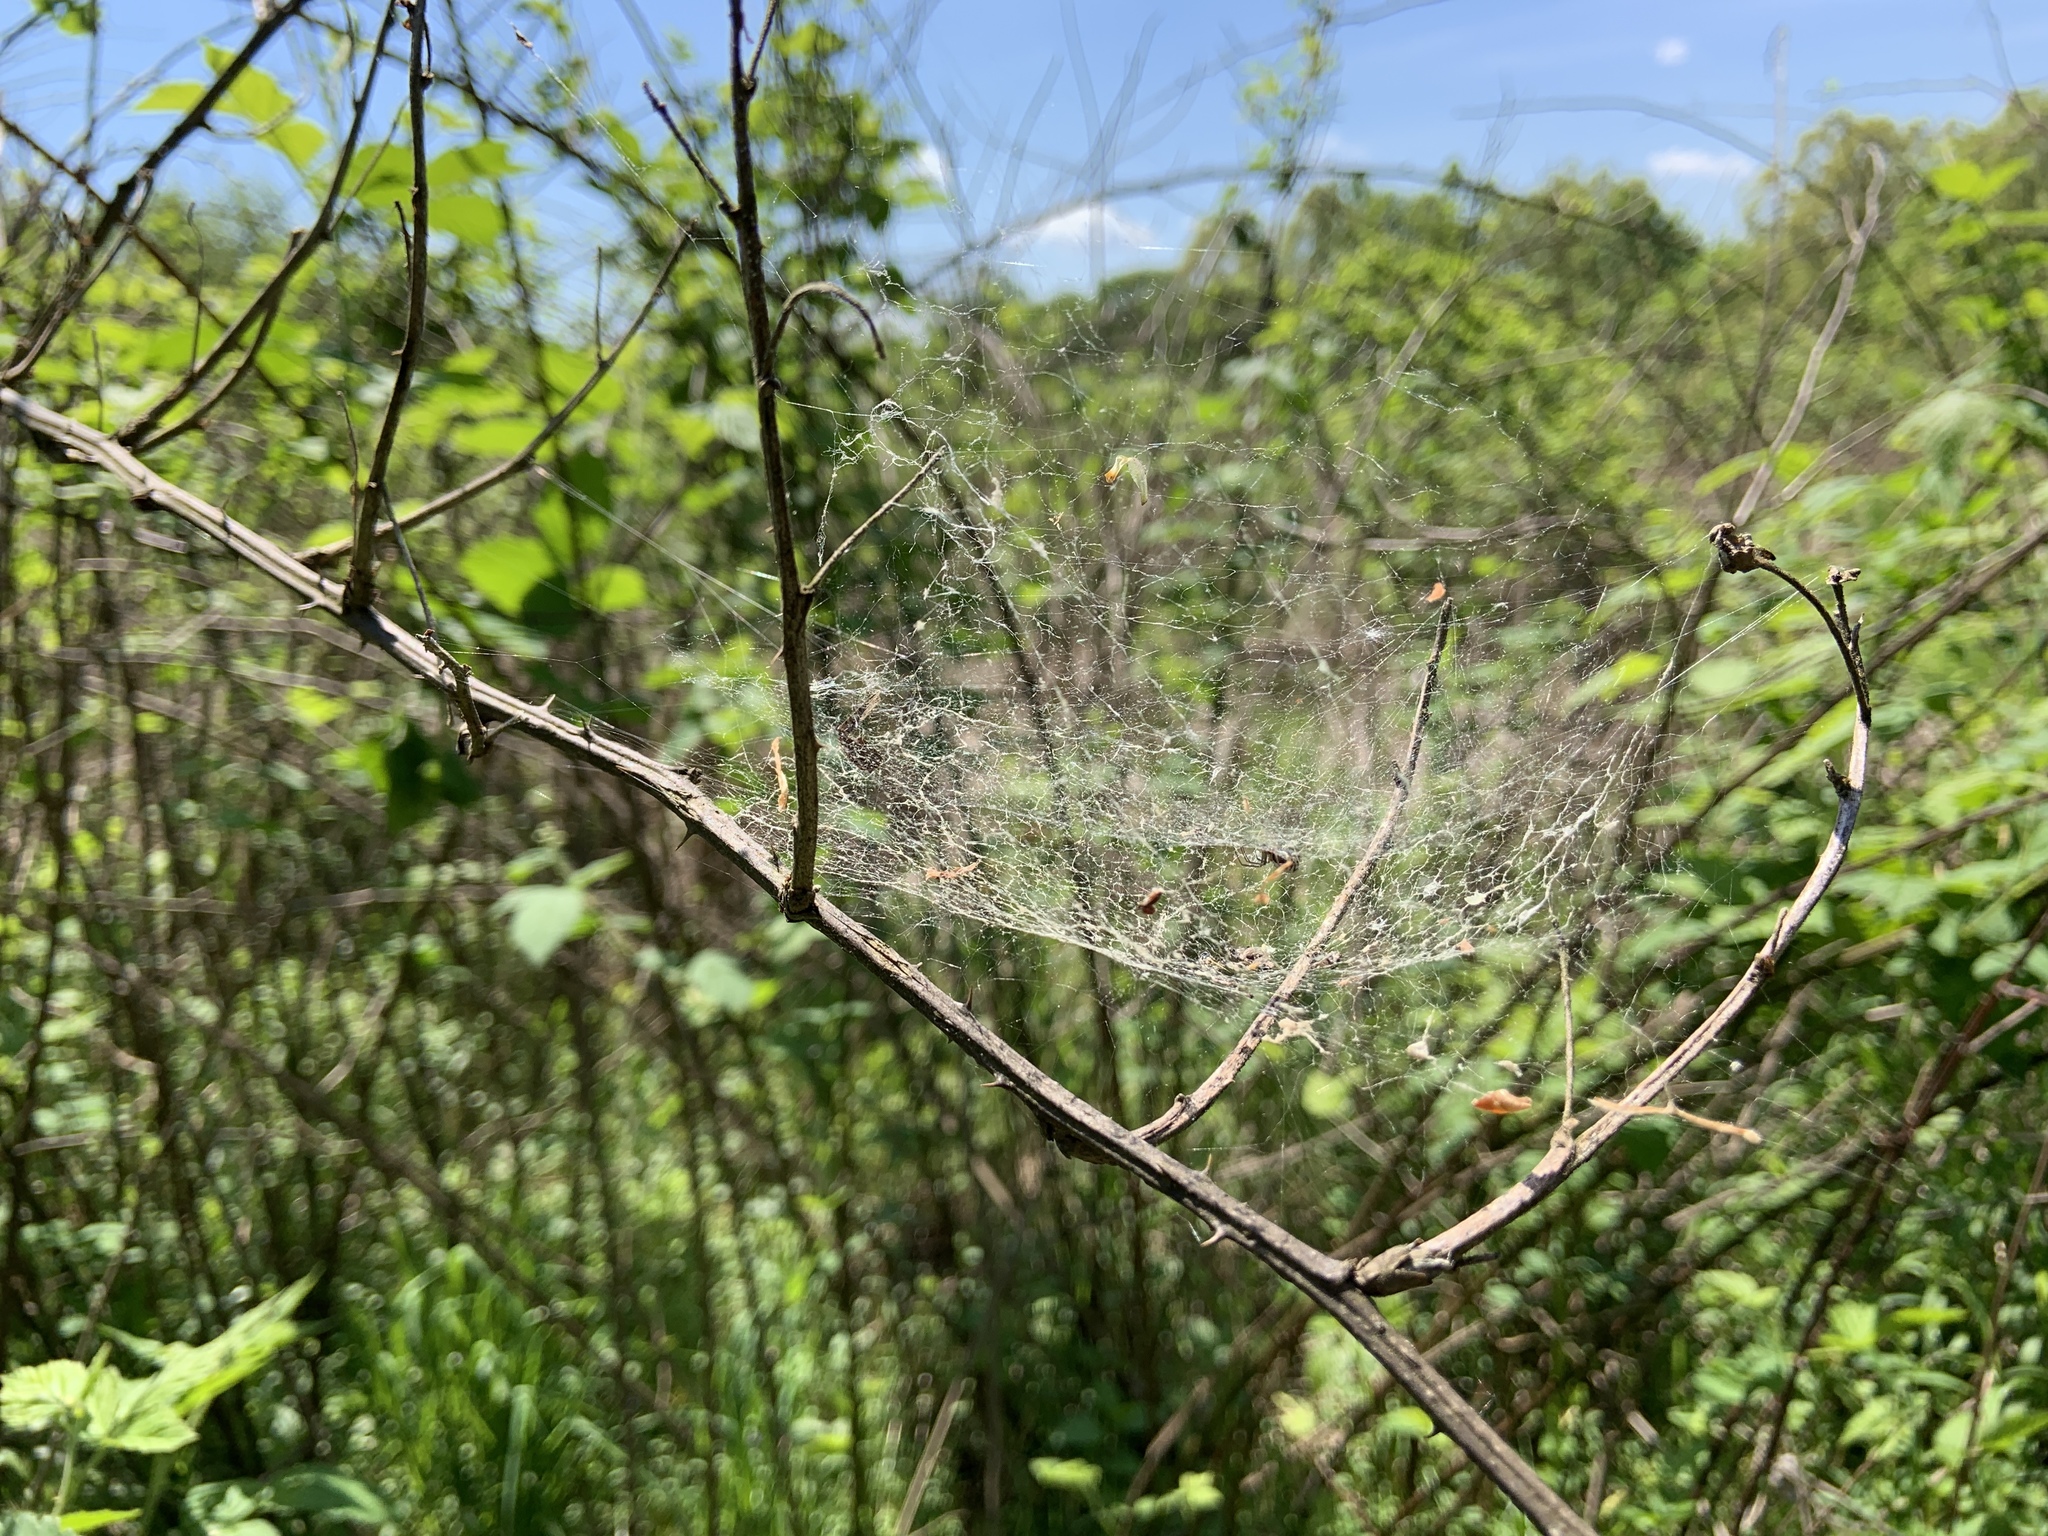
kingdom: Animalia
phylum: Arthropoda
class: Arachnida
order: Araneae
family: Linyphiidae
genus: Frontinella
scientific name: Frontinella pyramitela
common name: Bowl-and-doily spider
